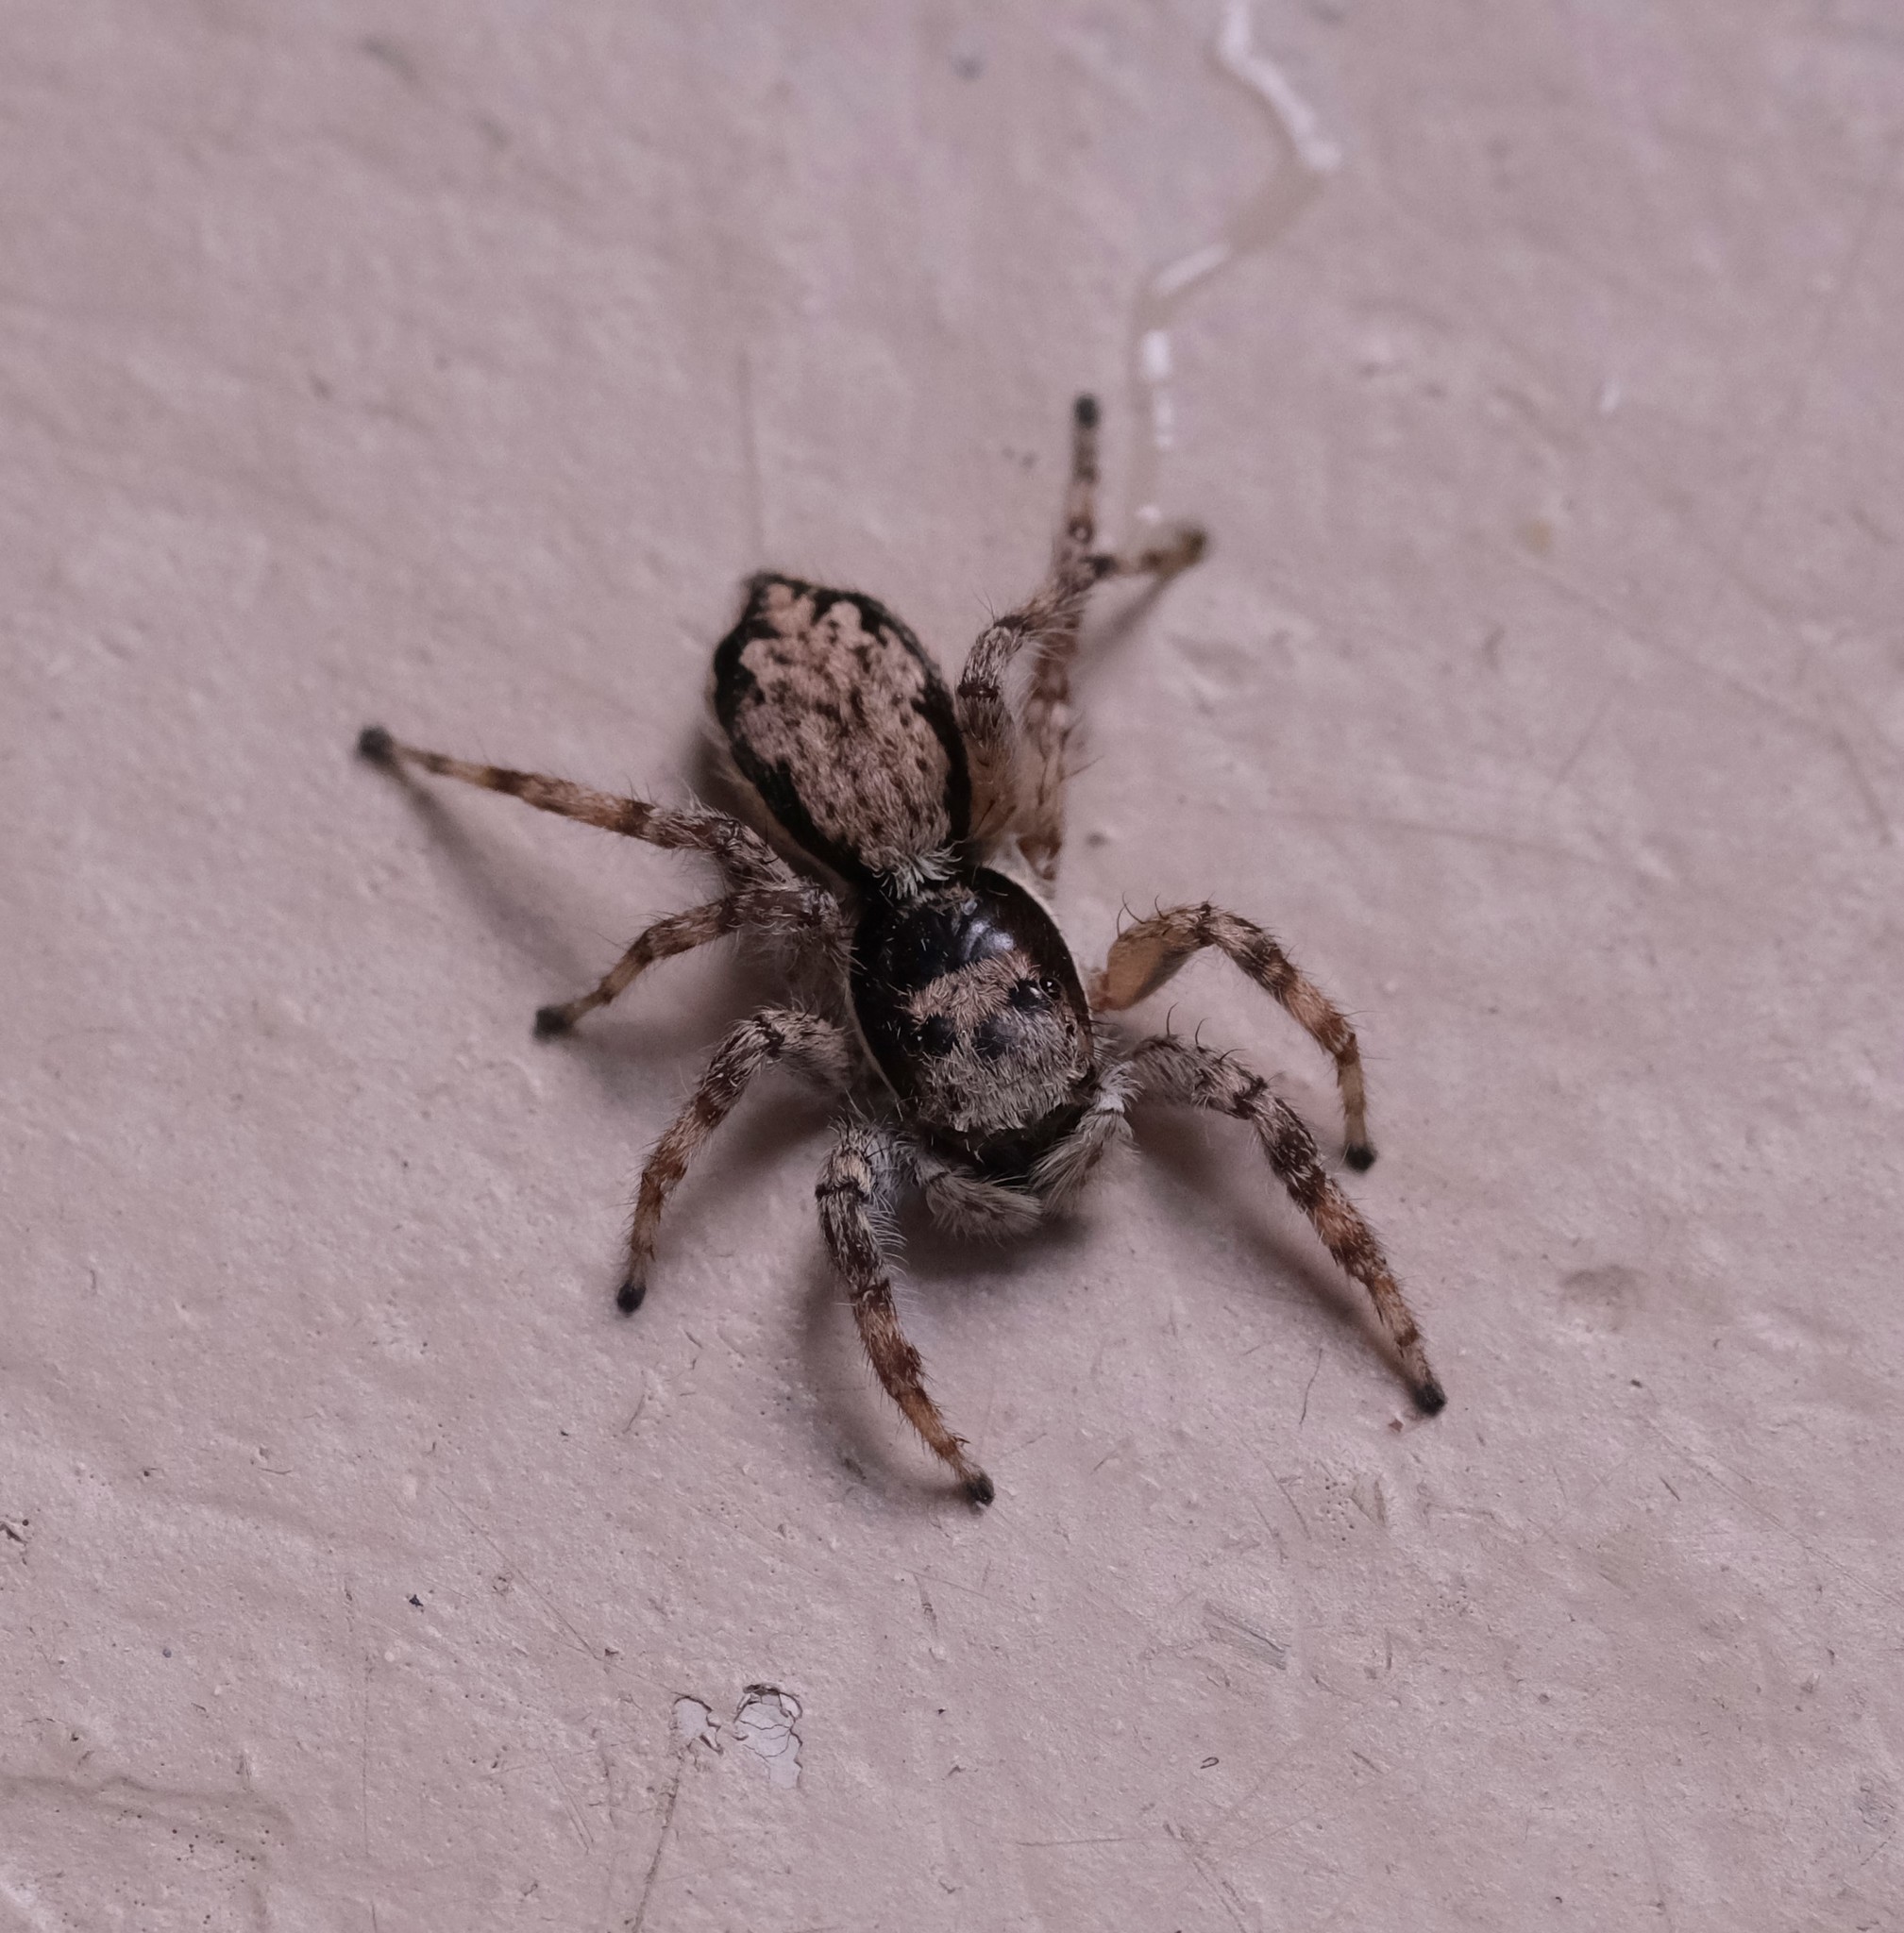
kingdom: Animalia
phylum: Arthropoda
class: Arachnida
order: Araneae
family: Salticidae
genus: Menemerus
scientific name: Menemerus bivittatus
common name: Gray wall jumper
